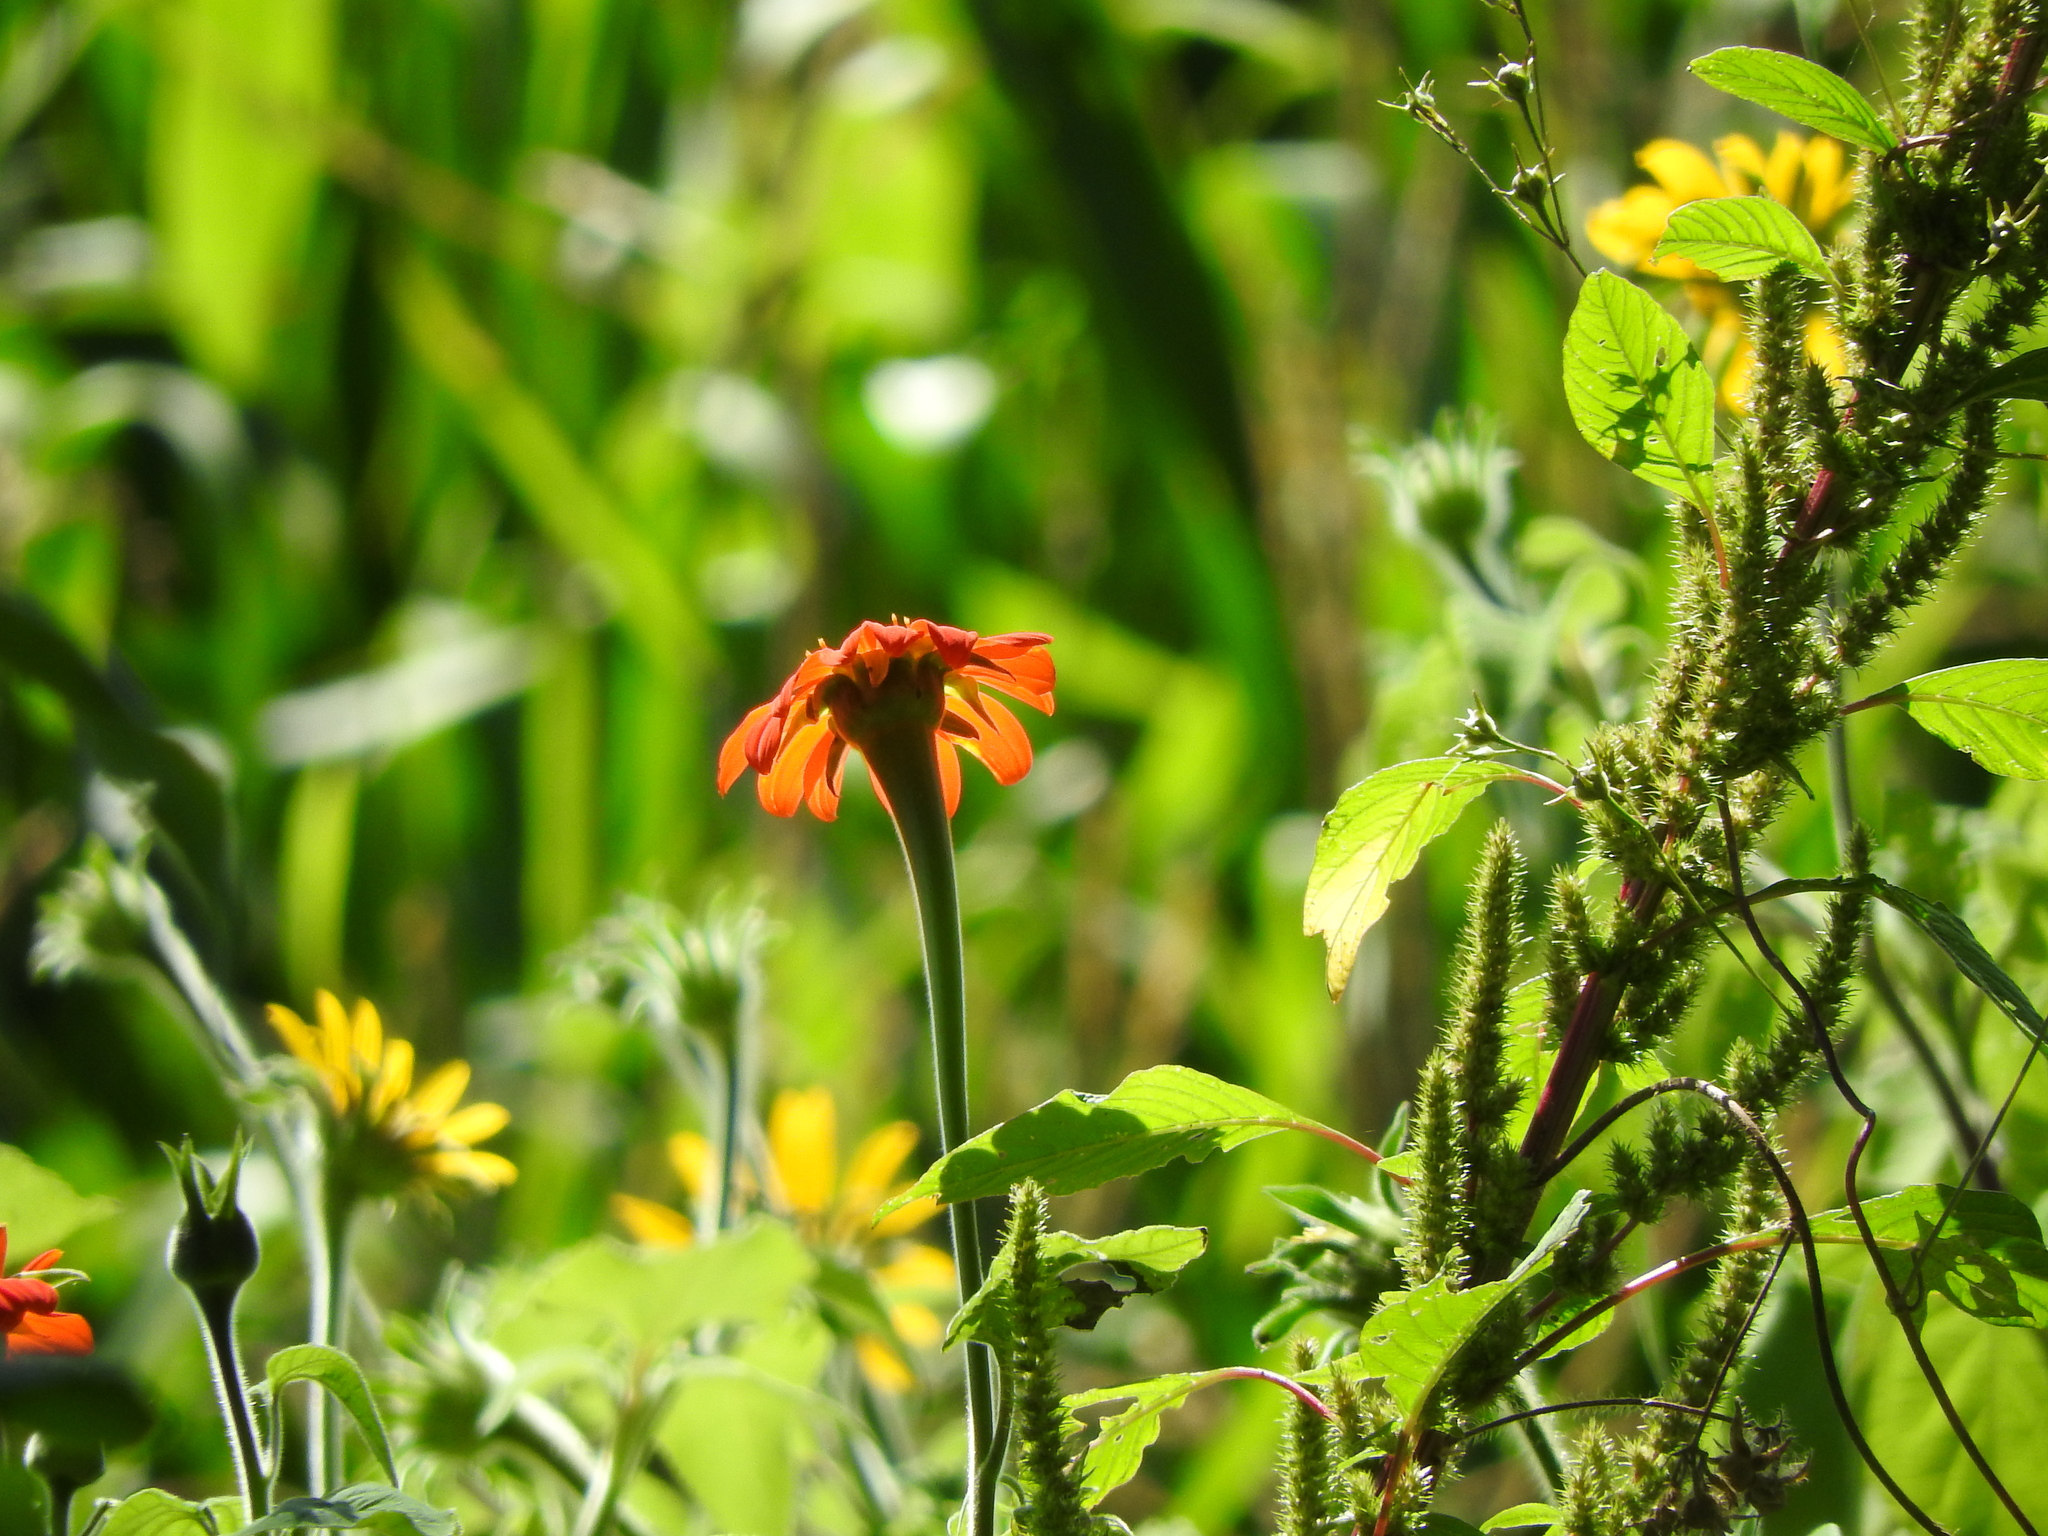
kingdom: Plantae
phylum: Tracheophyta
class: Magnoliopsida
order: Asterales
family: Asteraceae
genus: Tithonia
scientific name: Tithonia rotundifolia
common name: Sunflower
